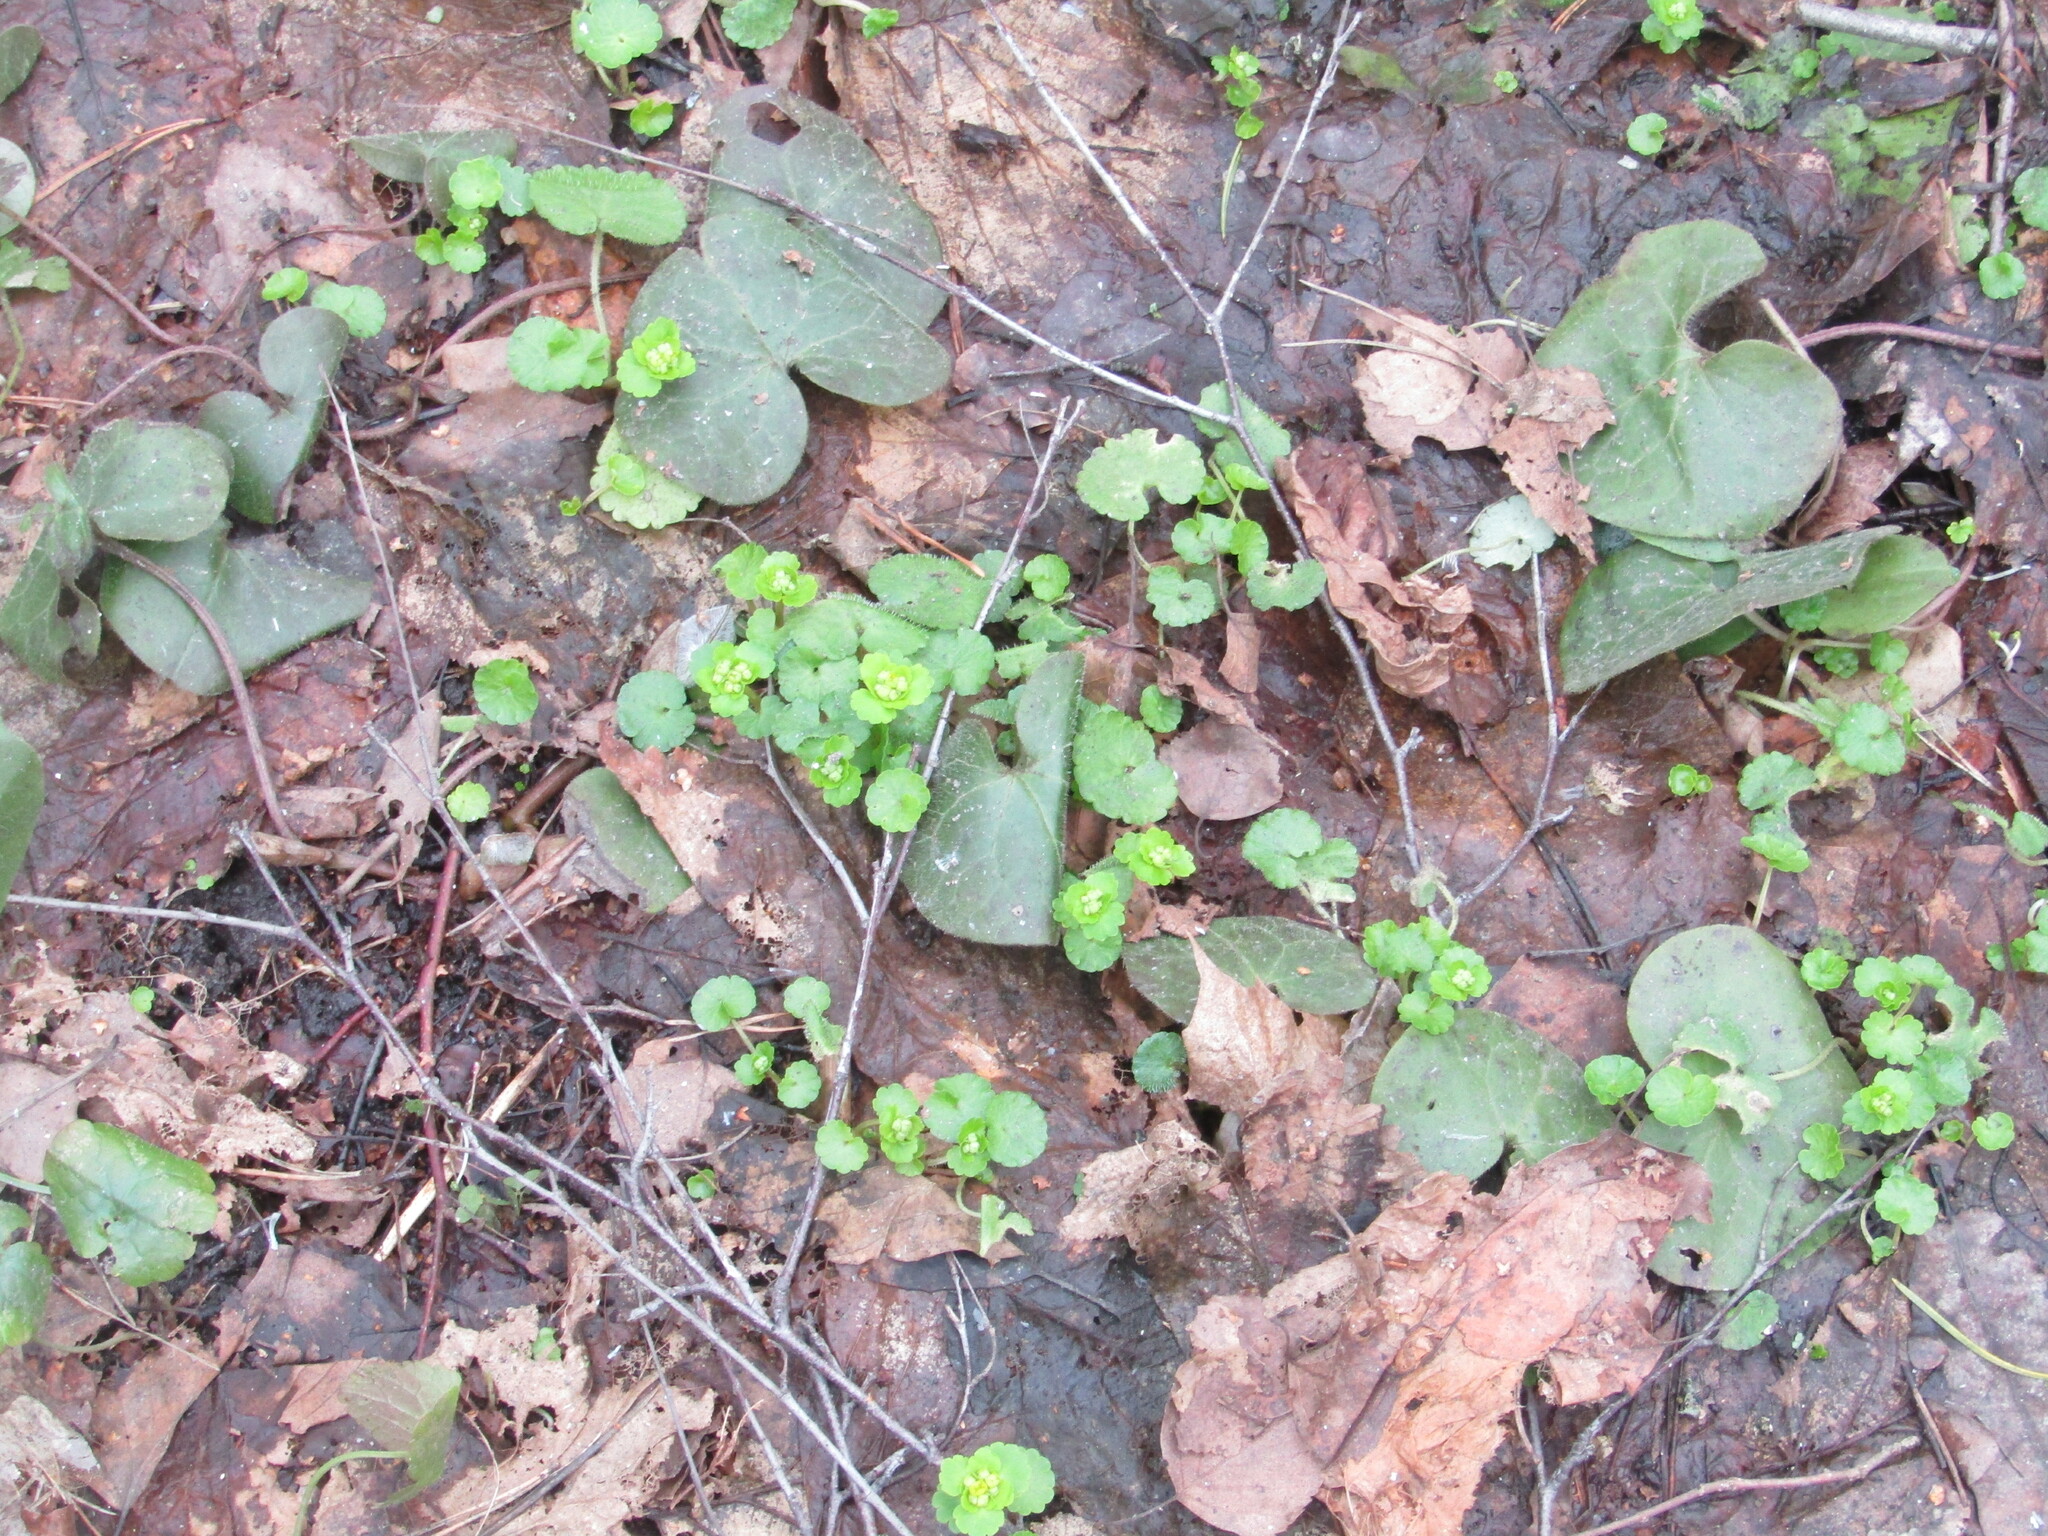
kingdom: Plantae
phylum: Tracheophyta
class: Magnoliopsida
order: Saxifragales
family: Saxifragaceae
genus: Chrysosplenium
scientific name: Chrysosplenium alternifolium
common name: Alternate-leaved golden-saxifrage
